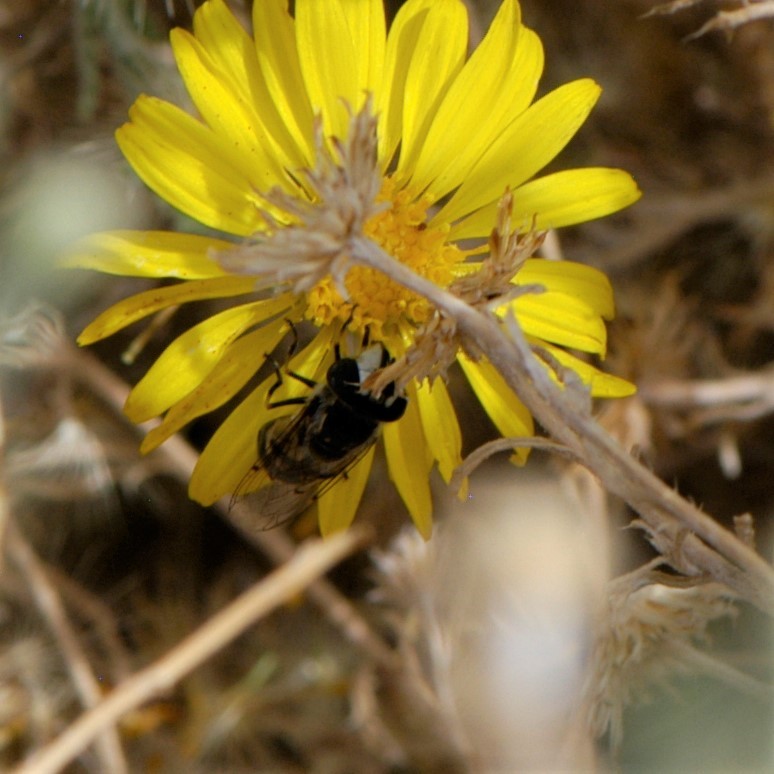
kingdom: Animalia
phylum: Arthropoda
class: Insecta
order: Diptera
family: Syrphidae
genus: Copestylum
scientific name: Copestylum
